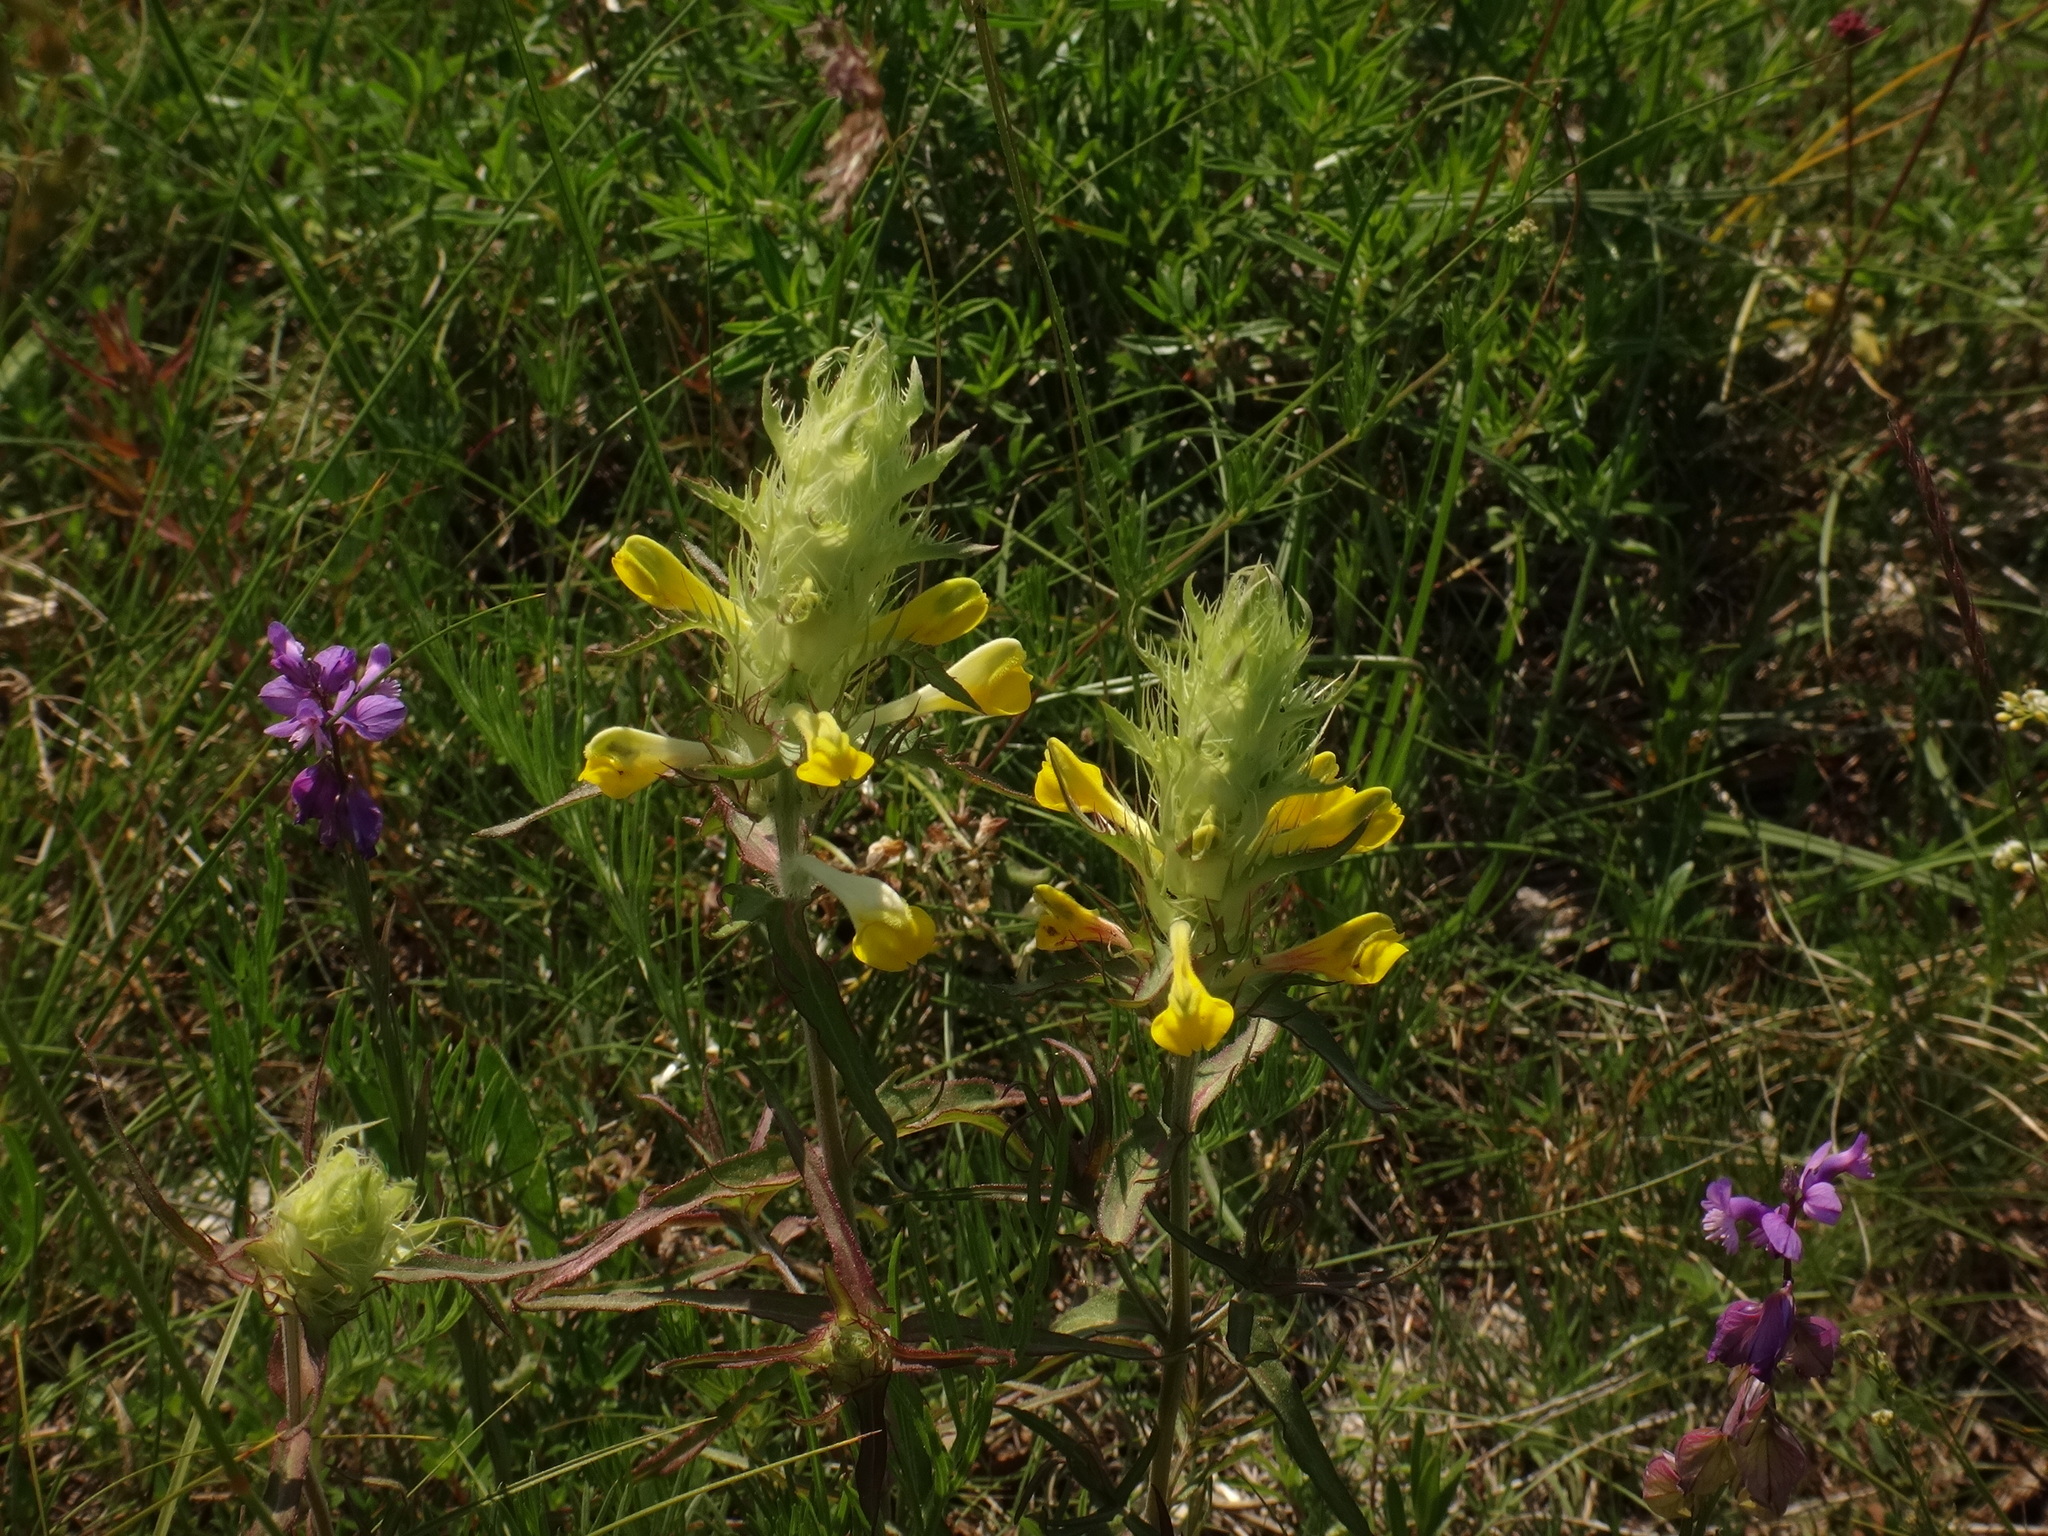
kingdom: Plantae
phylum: Tracheophyta
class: Magnoliopsida
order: Lamiales
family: Orobanchaceae
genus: Melampyrum
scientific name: Melampyrum barbatum
